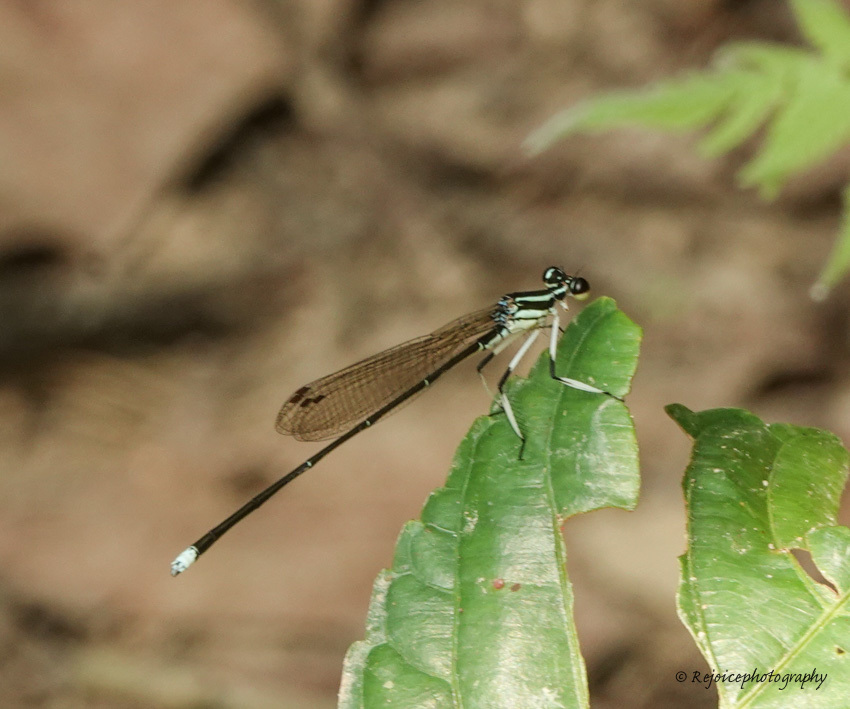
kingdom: Animalia
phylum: Arthropoda
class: Insecta
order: Odonata
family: Platycnemididae
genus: Pseudocopera
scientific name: Pseudocopera ciliata
